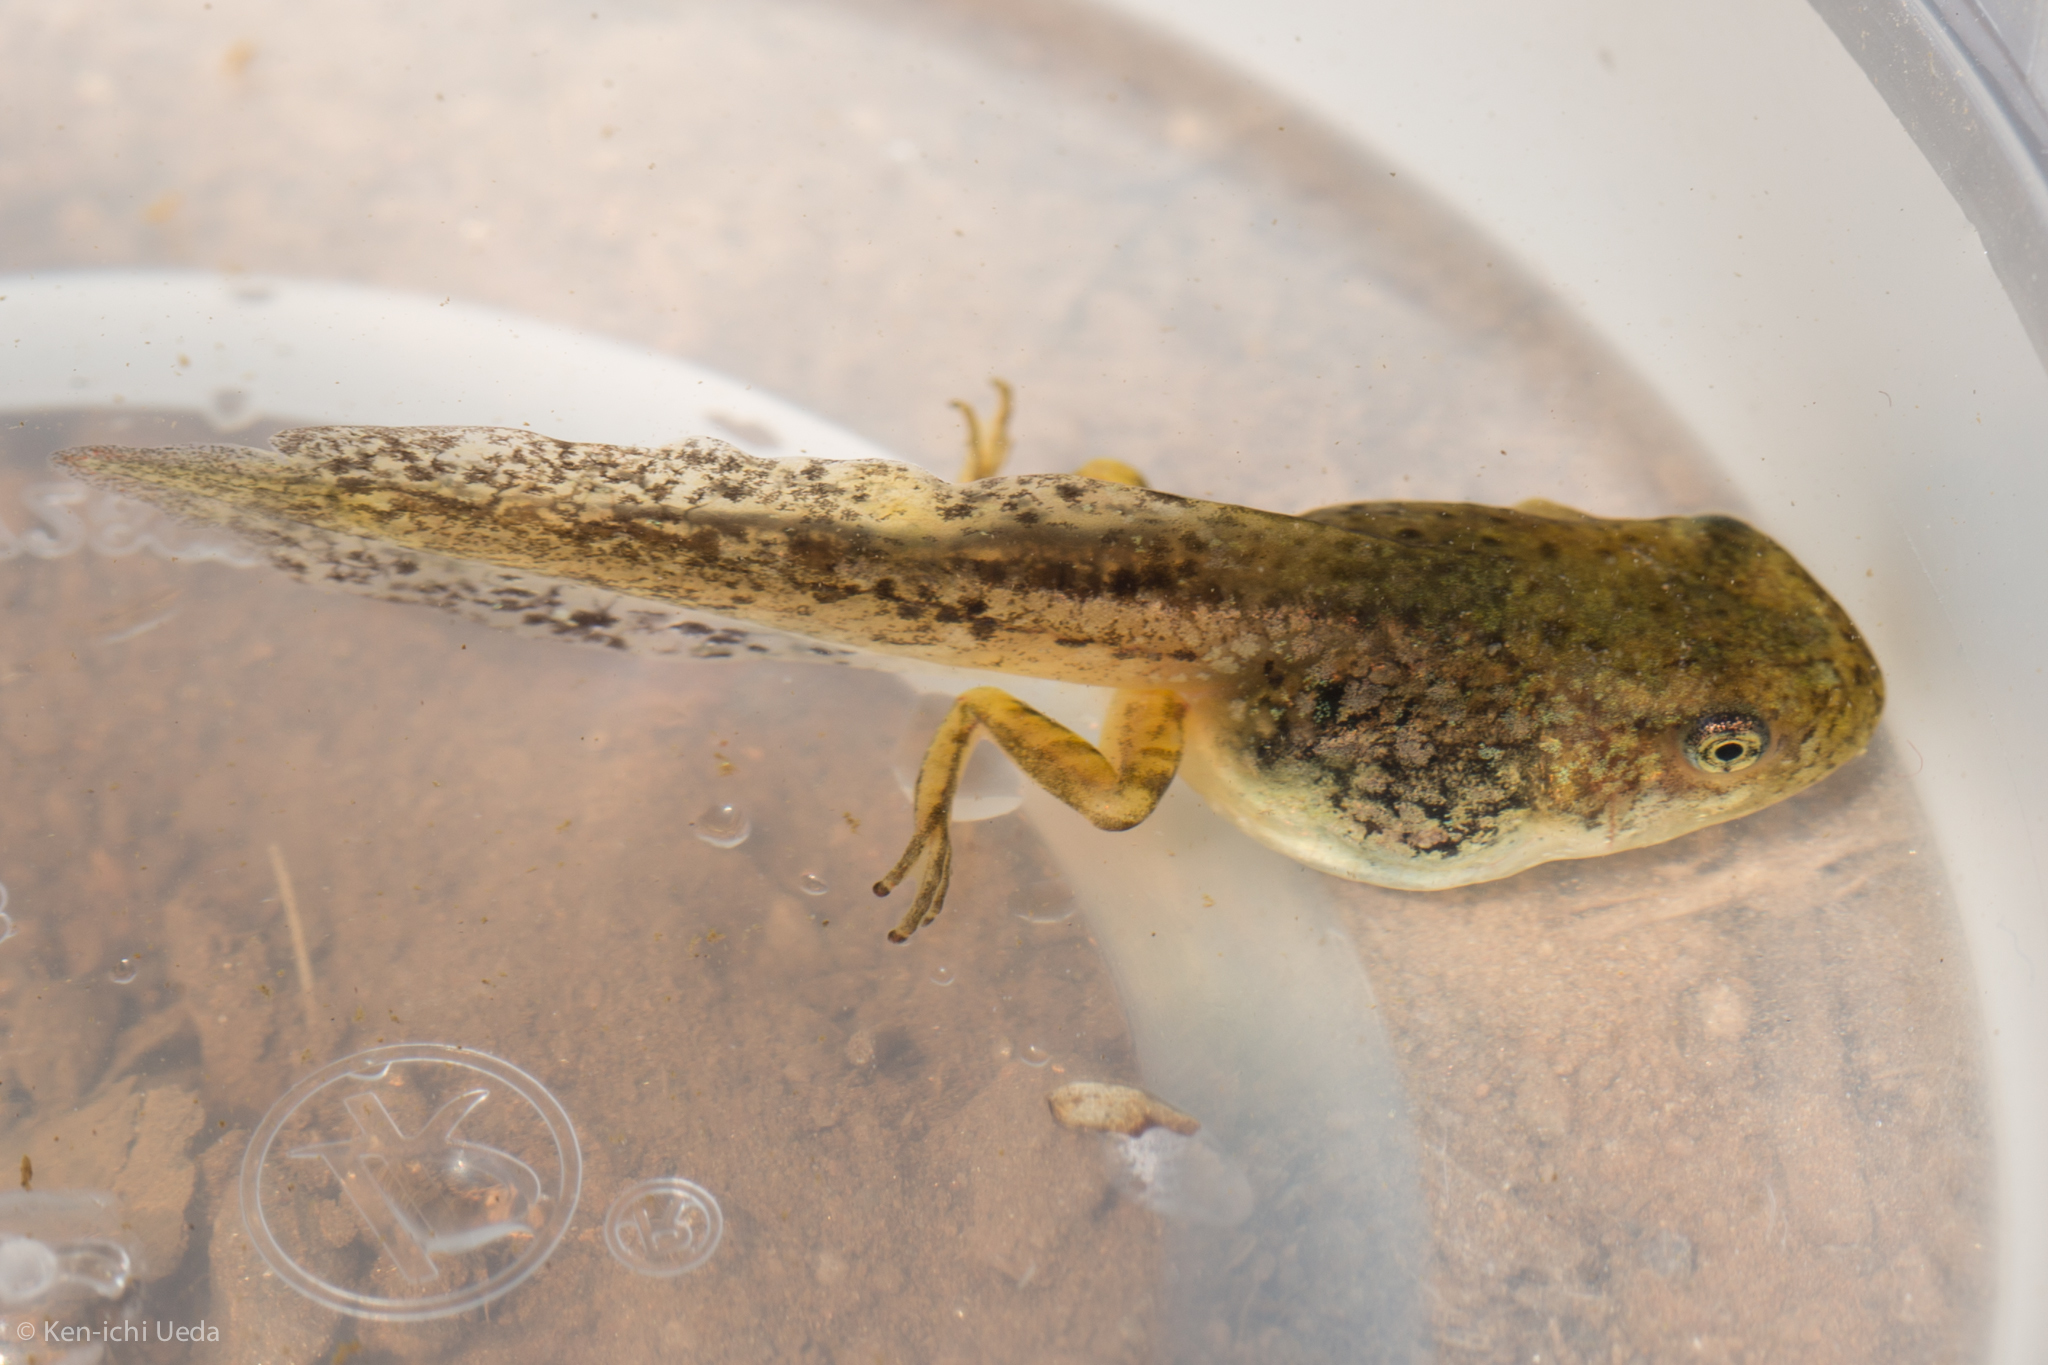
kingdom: Animalia
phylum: Chordata
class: Amphibia
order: Anura
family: Hylidae
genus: Pseudacris
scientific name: Pseudacris regilla
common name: Pacific chorus frog
